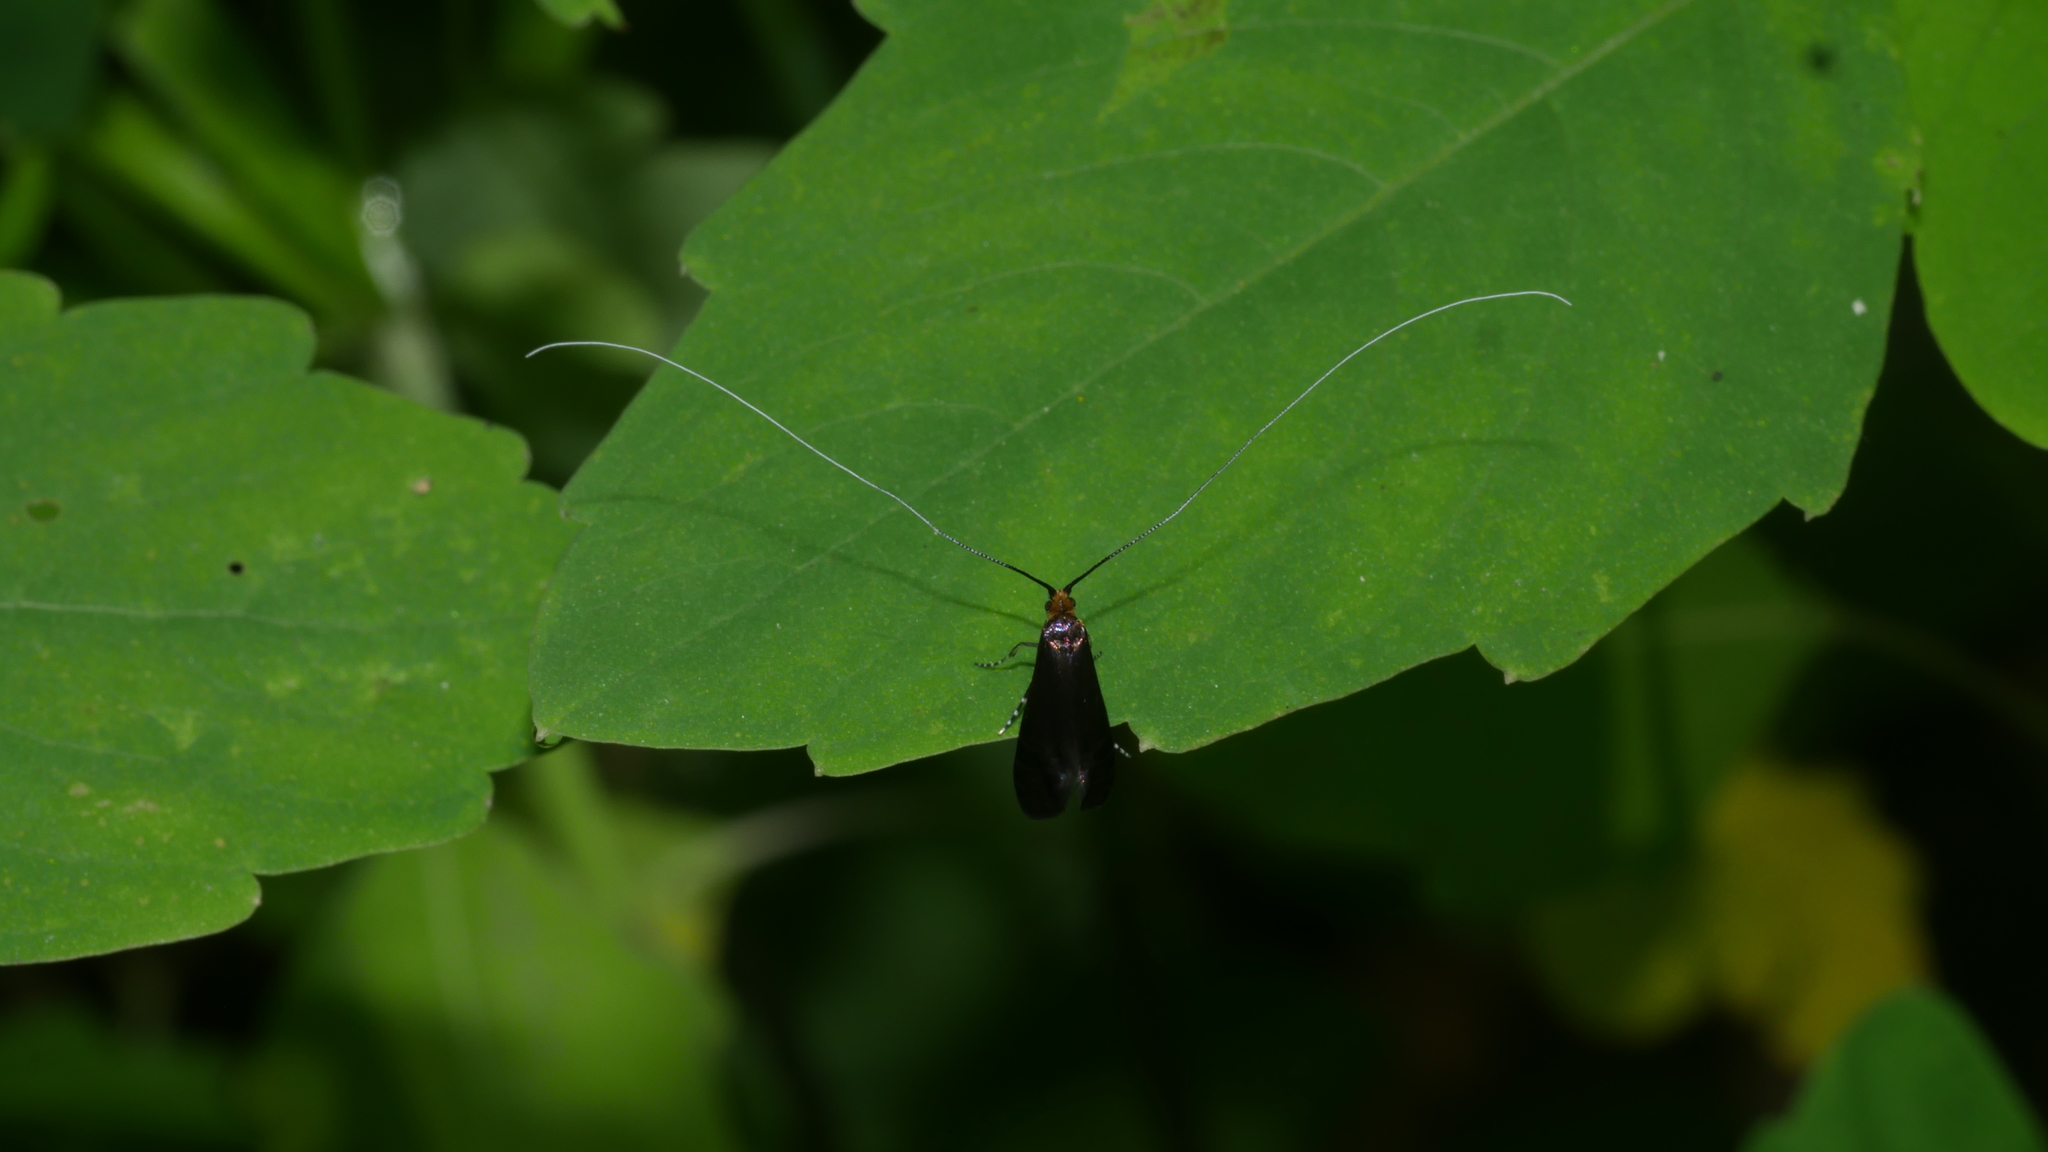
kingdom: Animalia
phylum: Arthropoda
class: Insecta
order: Lepidoptera
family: Adelidae
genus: Adela
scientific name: Adela caeruleella
